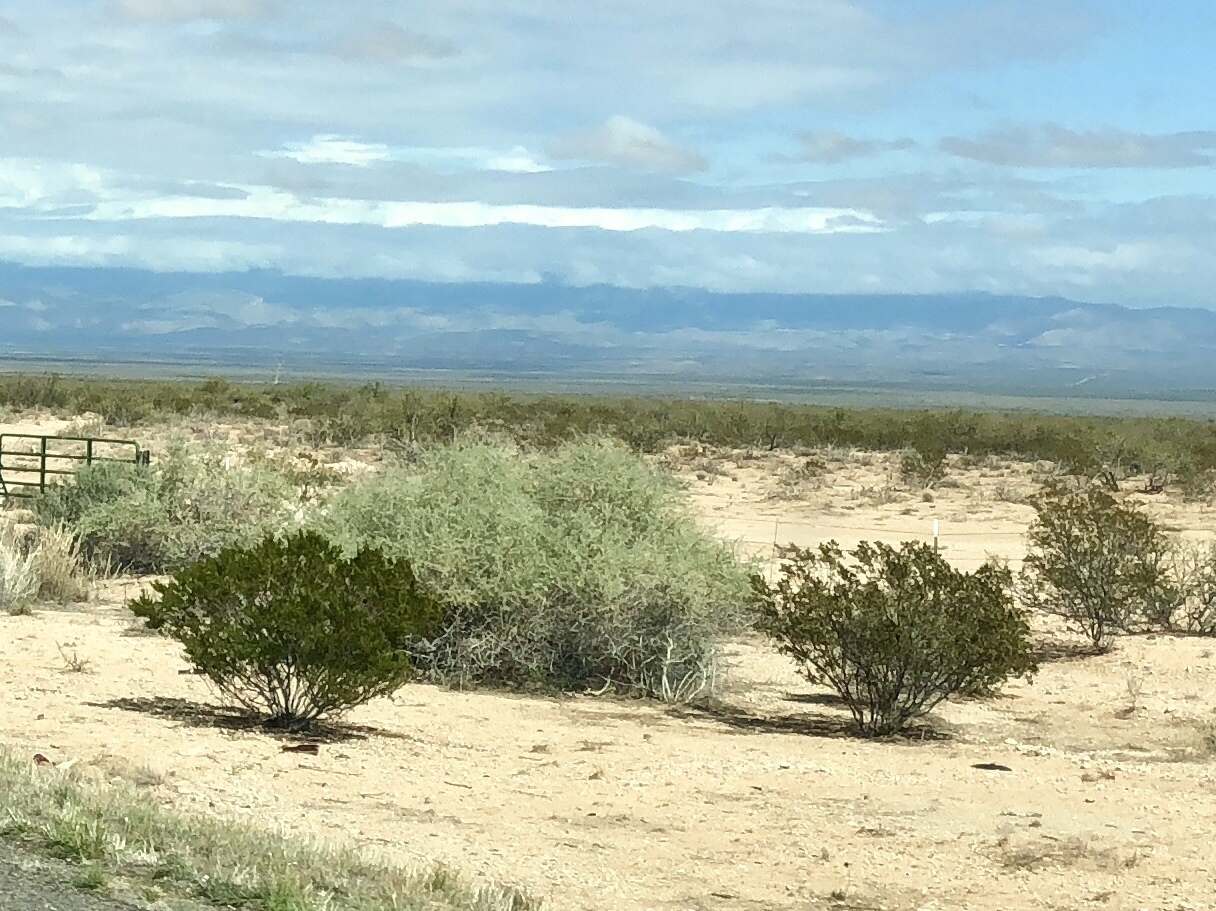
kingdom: Plantae
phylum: Tracheophyta
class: Magnoliopsida
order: Zygophyllales
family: Zygophyllaceae
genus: Larrea
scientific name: Larrea tridentata
